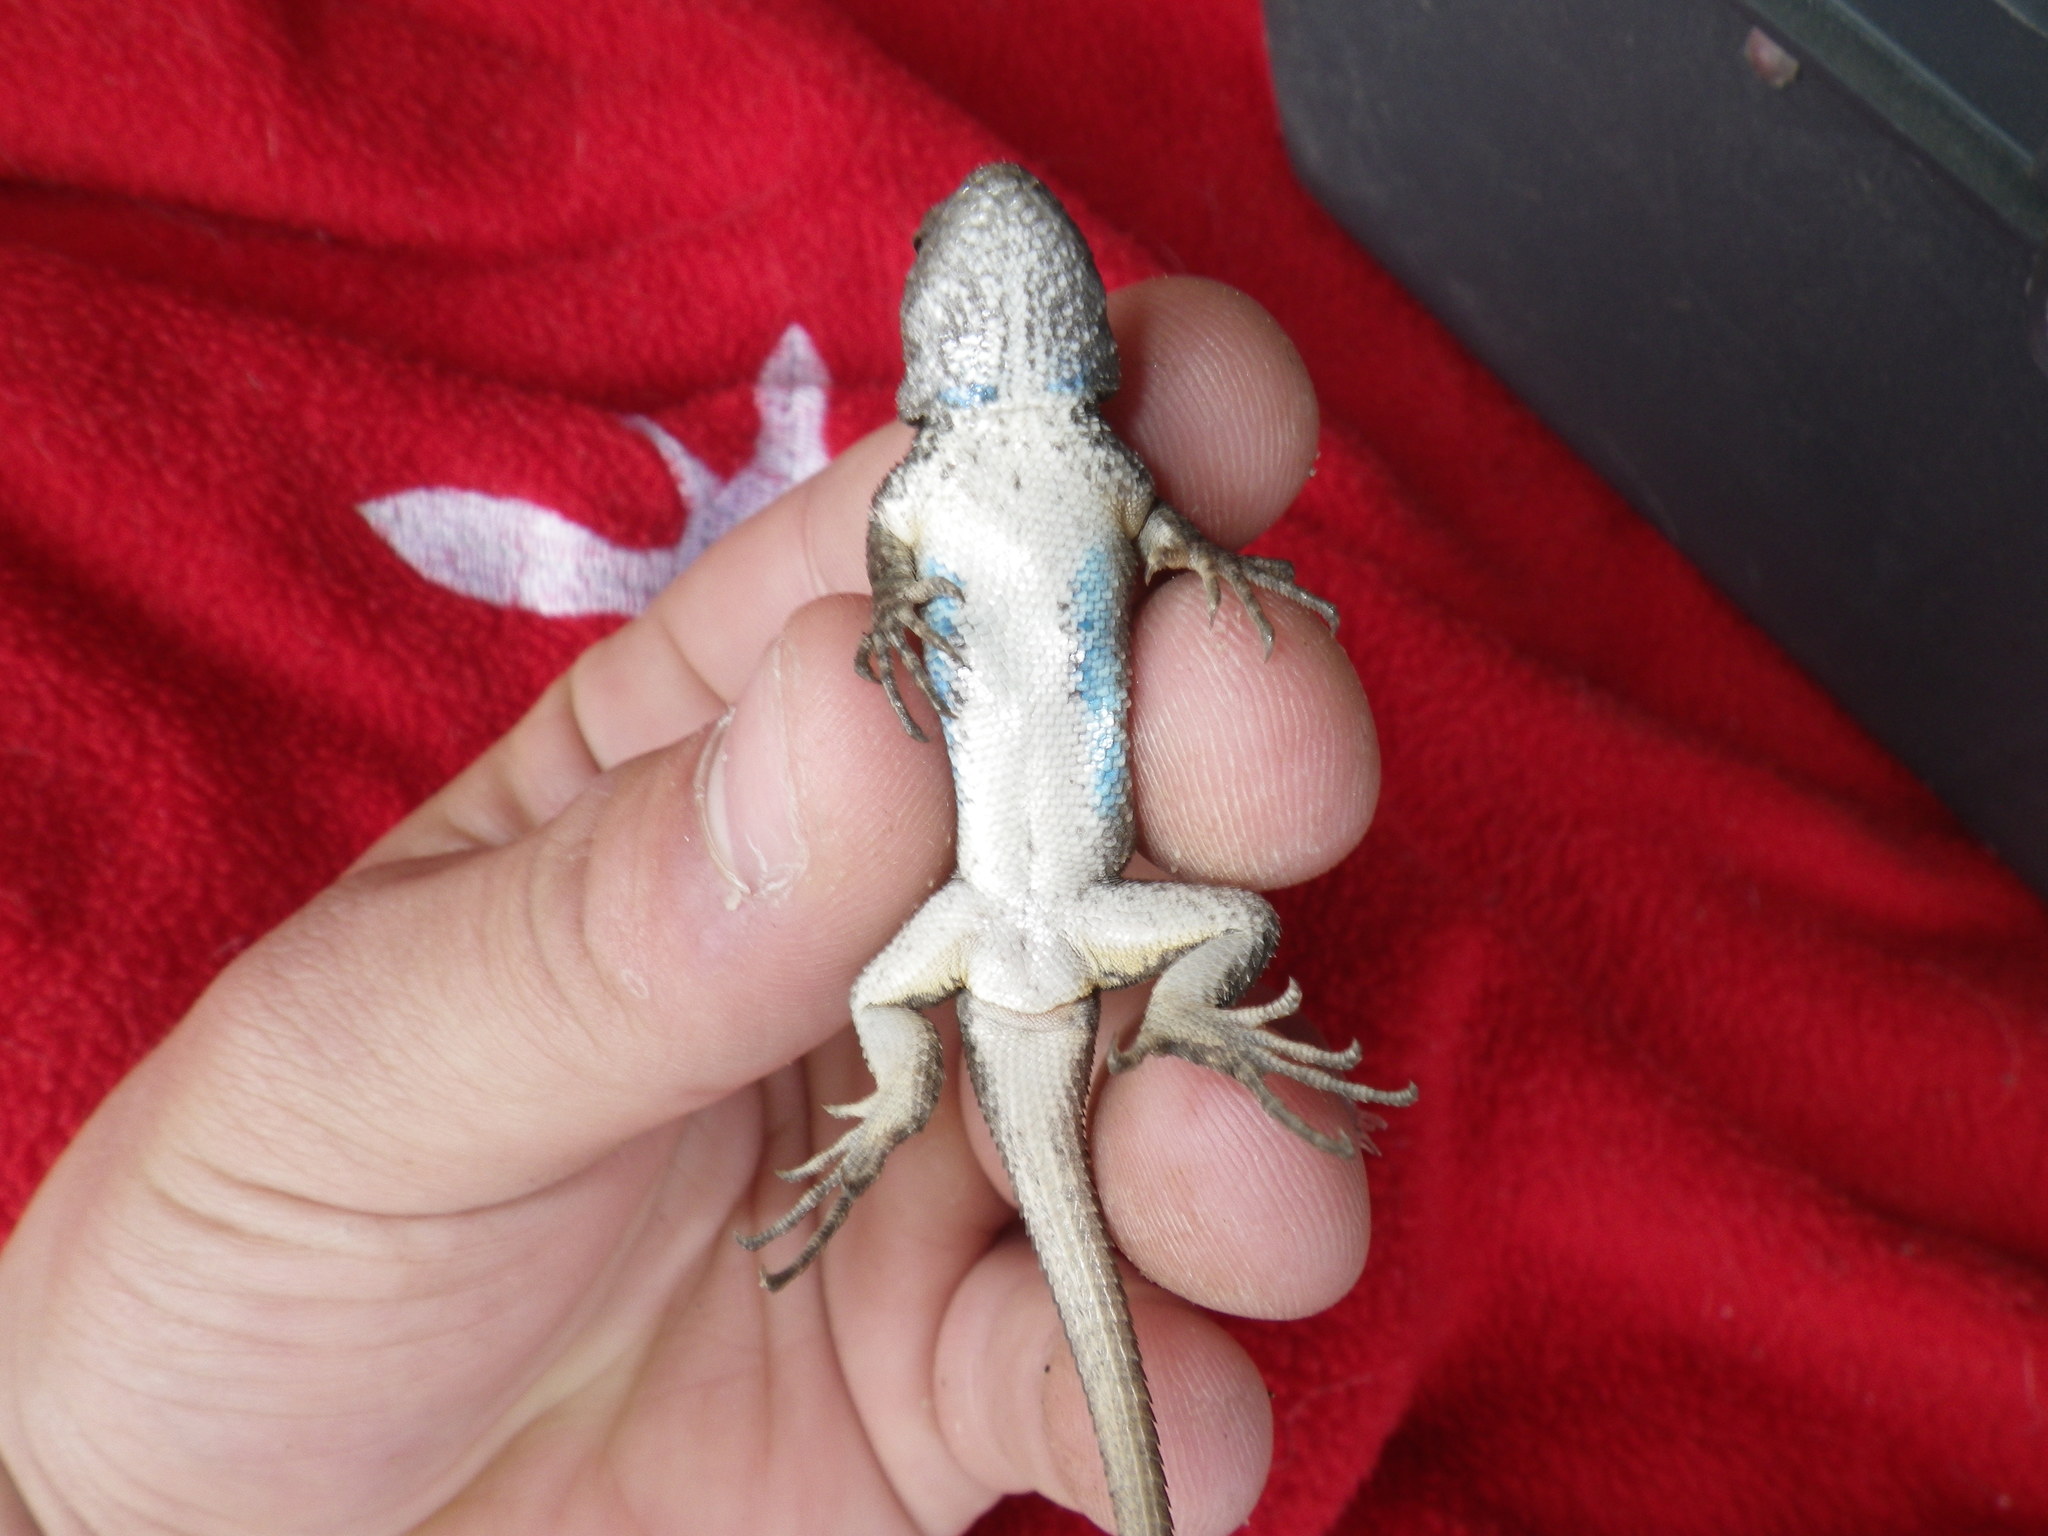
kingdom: Animalia
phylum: Chordata
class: Squamata
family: Phrynosomatidae
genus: Sceloporus
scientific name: Sceloporus occidentalis
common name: Western fence lizard
